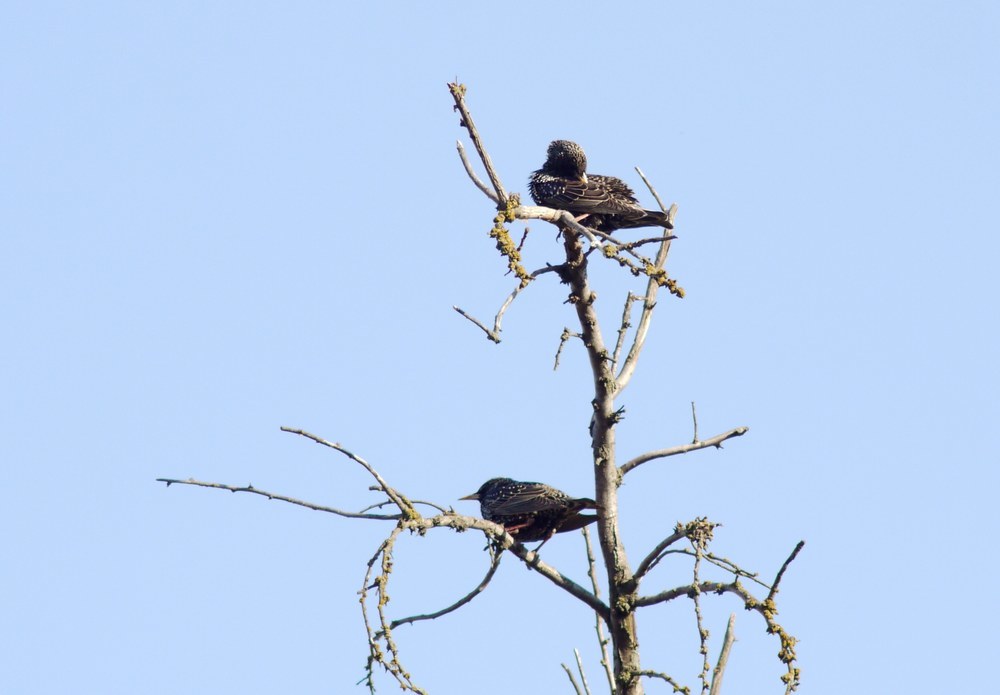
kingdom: Animalia
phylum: Chordata
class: Aves
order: Passeriformes
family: Sturnidae
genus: Sturnus
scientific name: Sturnus vulgaris
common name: Common starling
